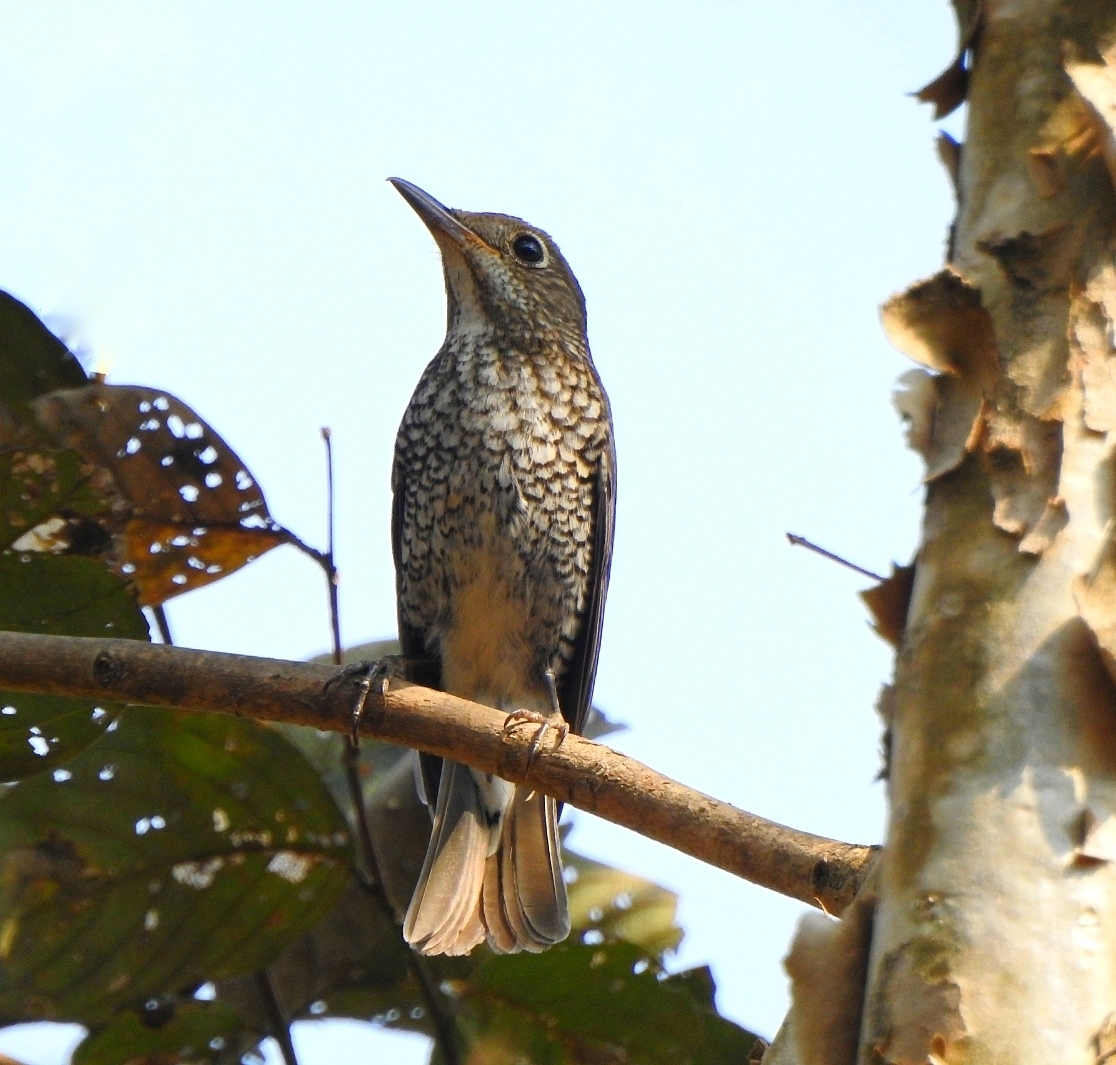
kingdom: Animalia
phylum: Chordata
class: Aves
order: Passeriformes
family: Muscicapidae
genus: Monticola
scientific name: Monticola cinclorhynchus
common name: Blue-capped rock thrush
